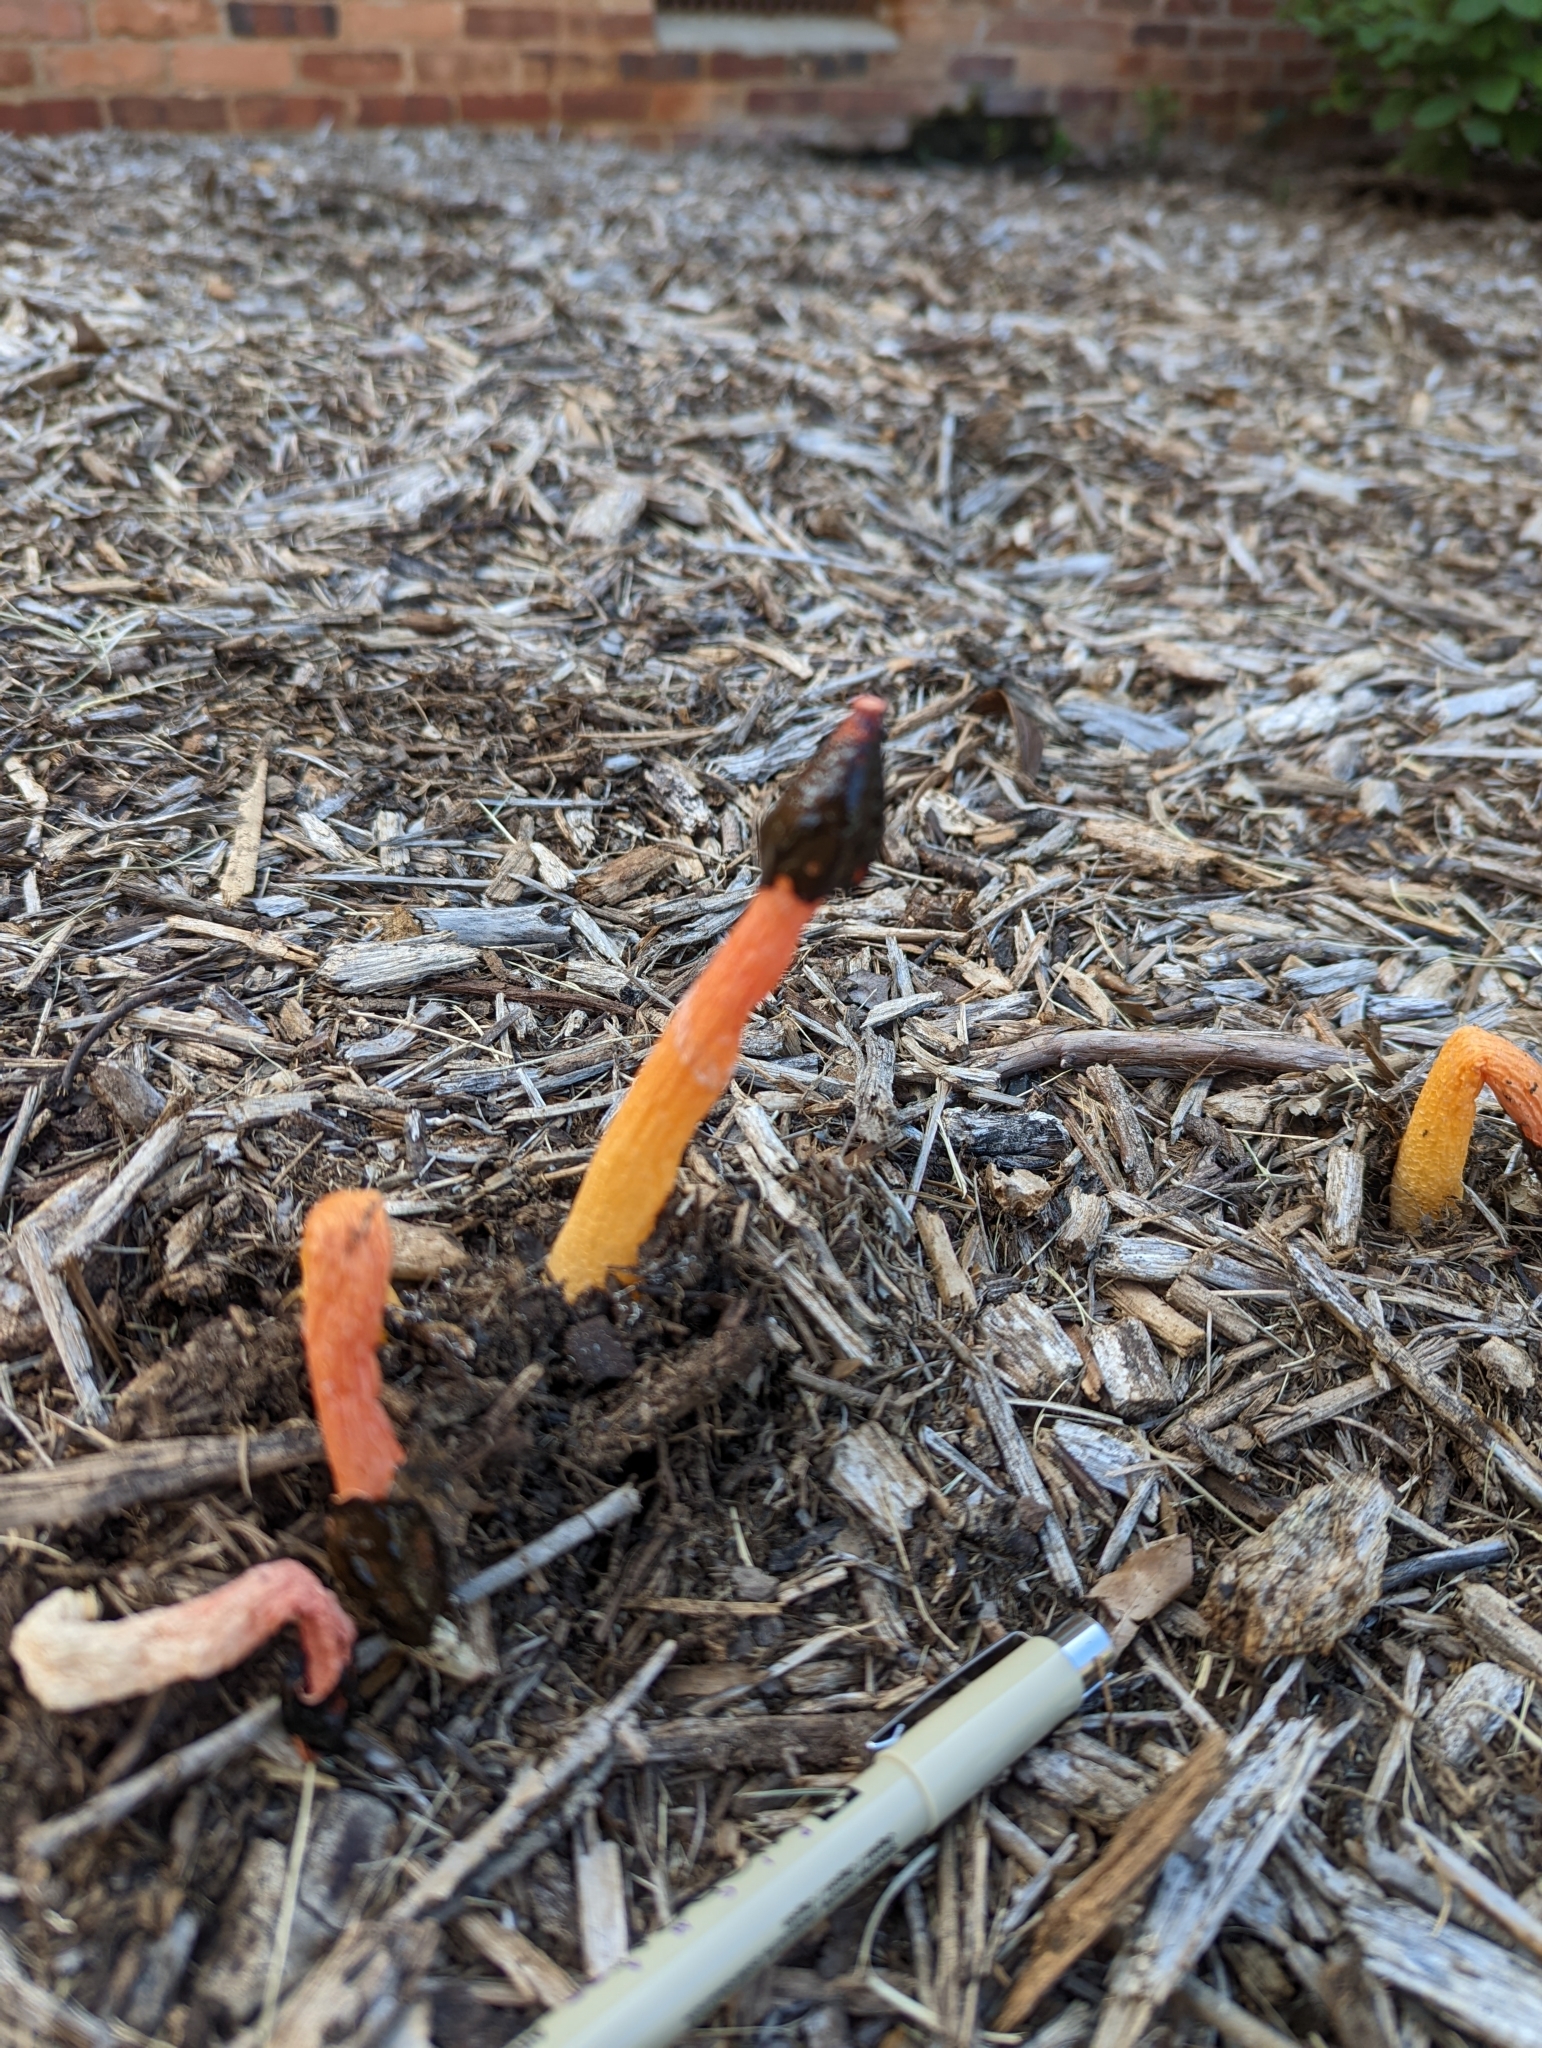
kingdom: Fungi
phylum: Basidiomycota
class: Agaricomycetes
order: Phallales
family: Phallaceae
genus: Phallus
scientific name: Phallus rugulosus
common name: Wrinkly stinkhorn
